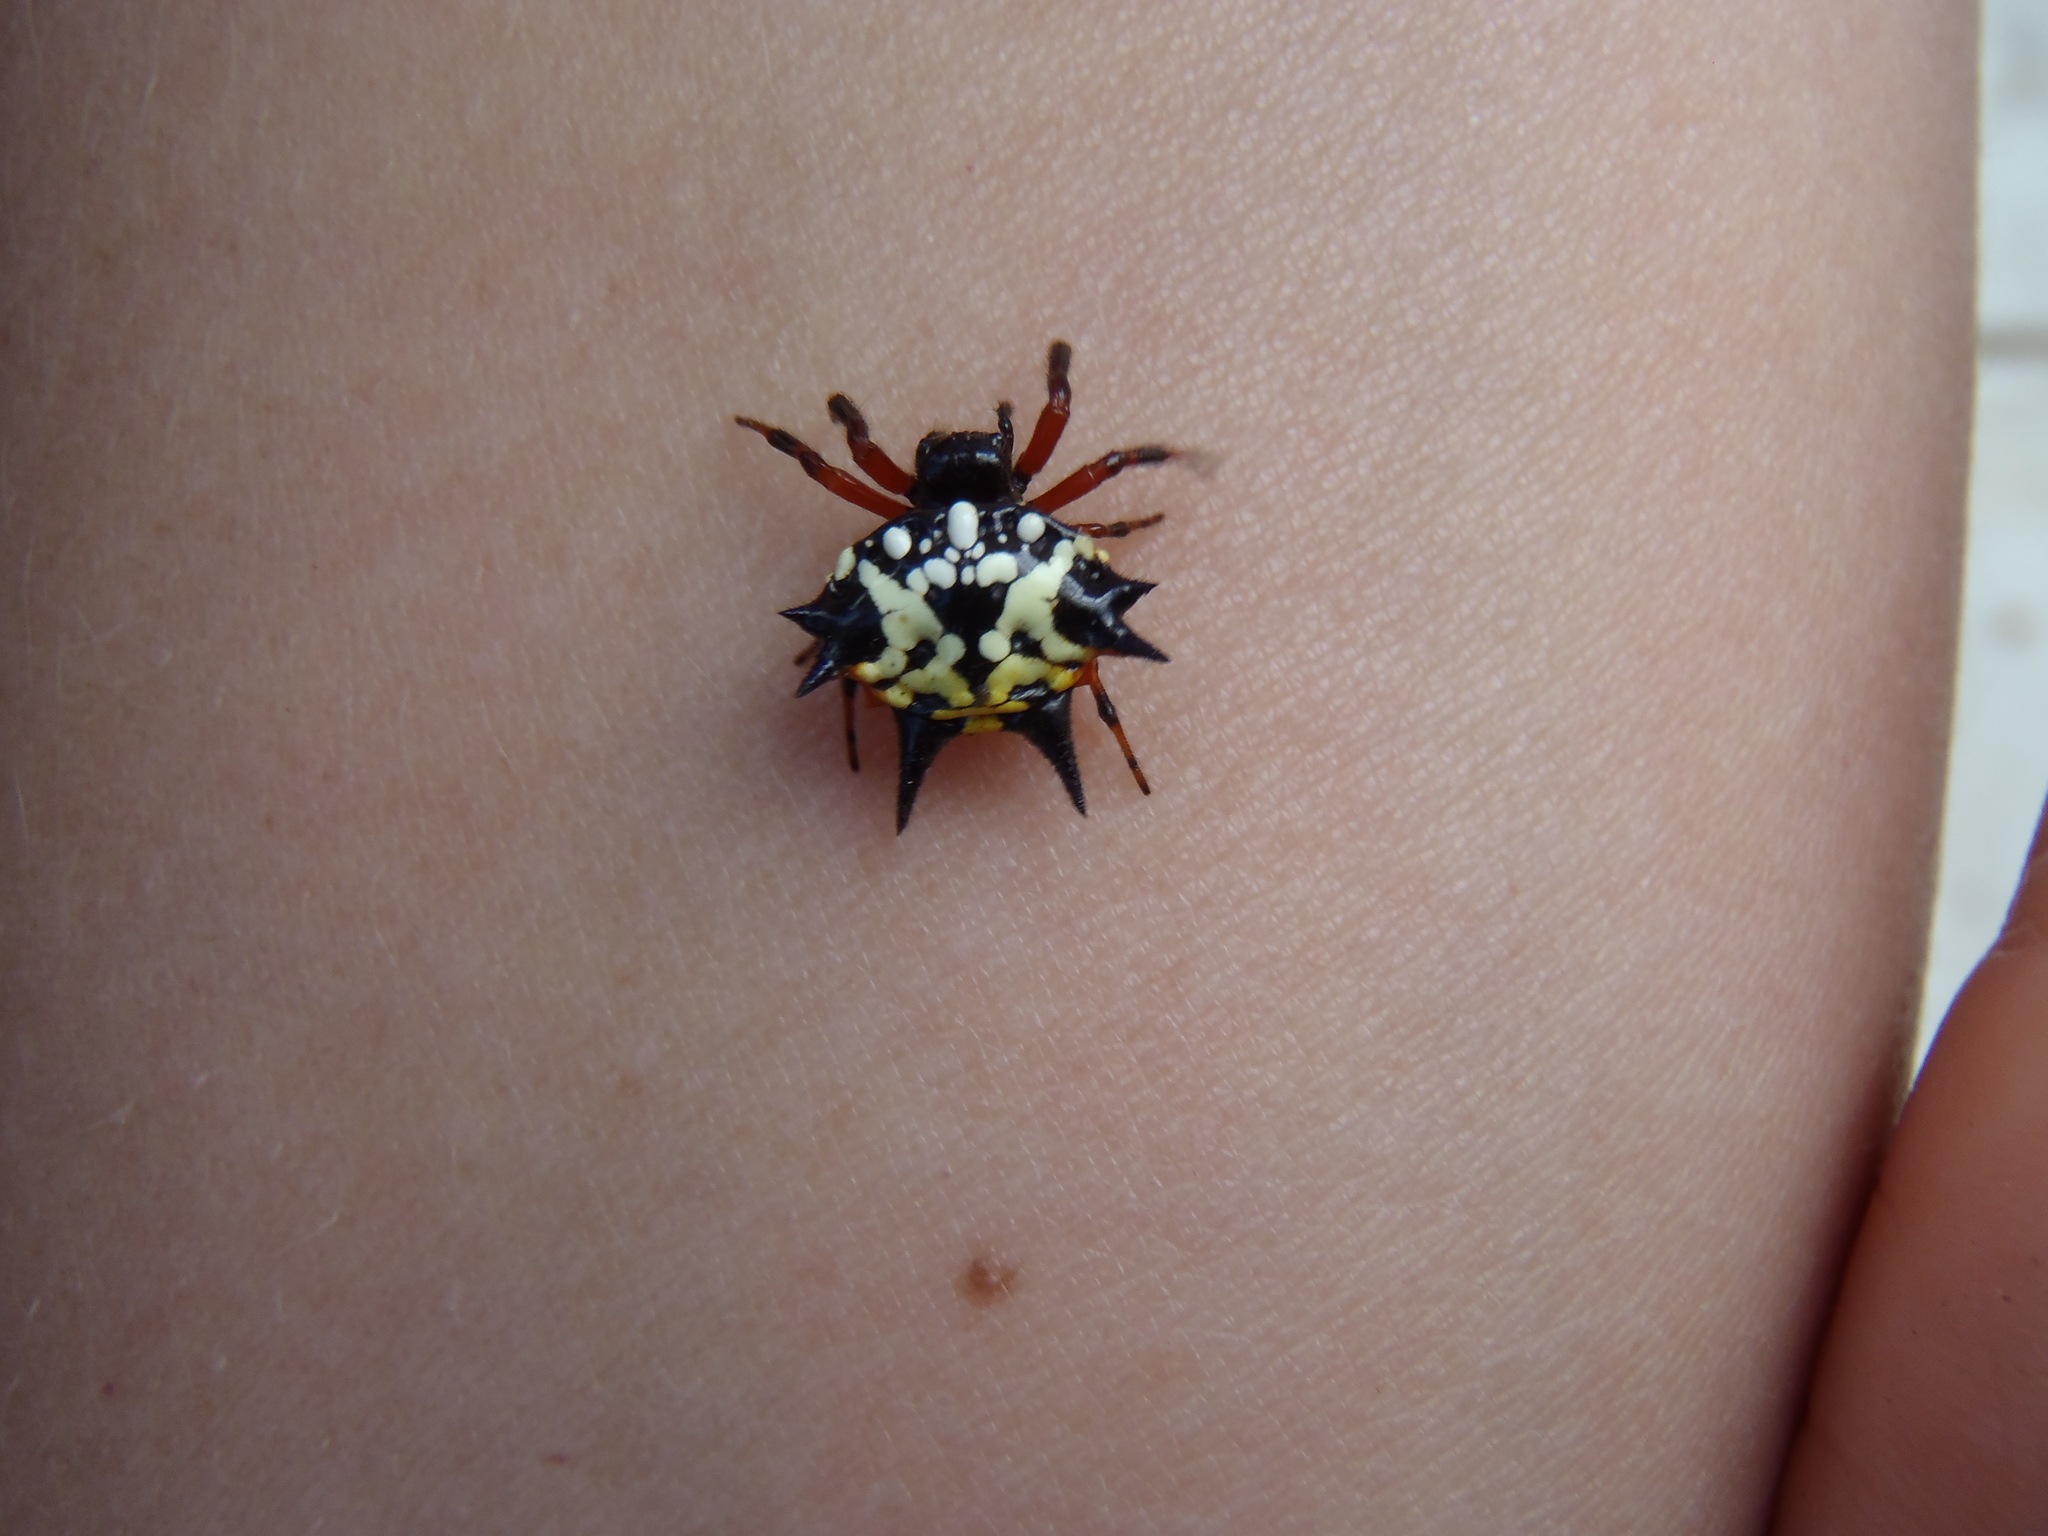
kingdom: Animalia
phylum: Arthropoda
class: Arachnida
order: Araneae
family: Araneidae
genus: Austracantha
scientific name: Austracantha minax
